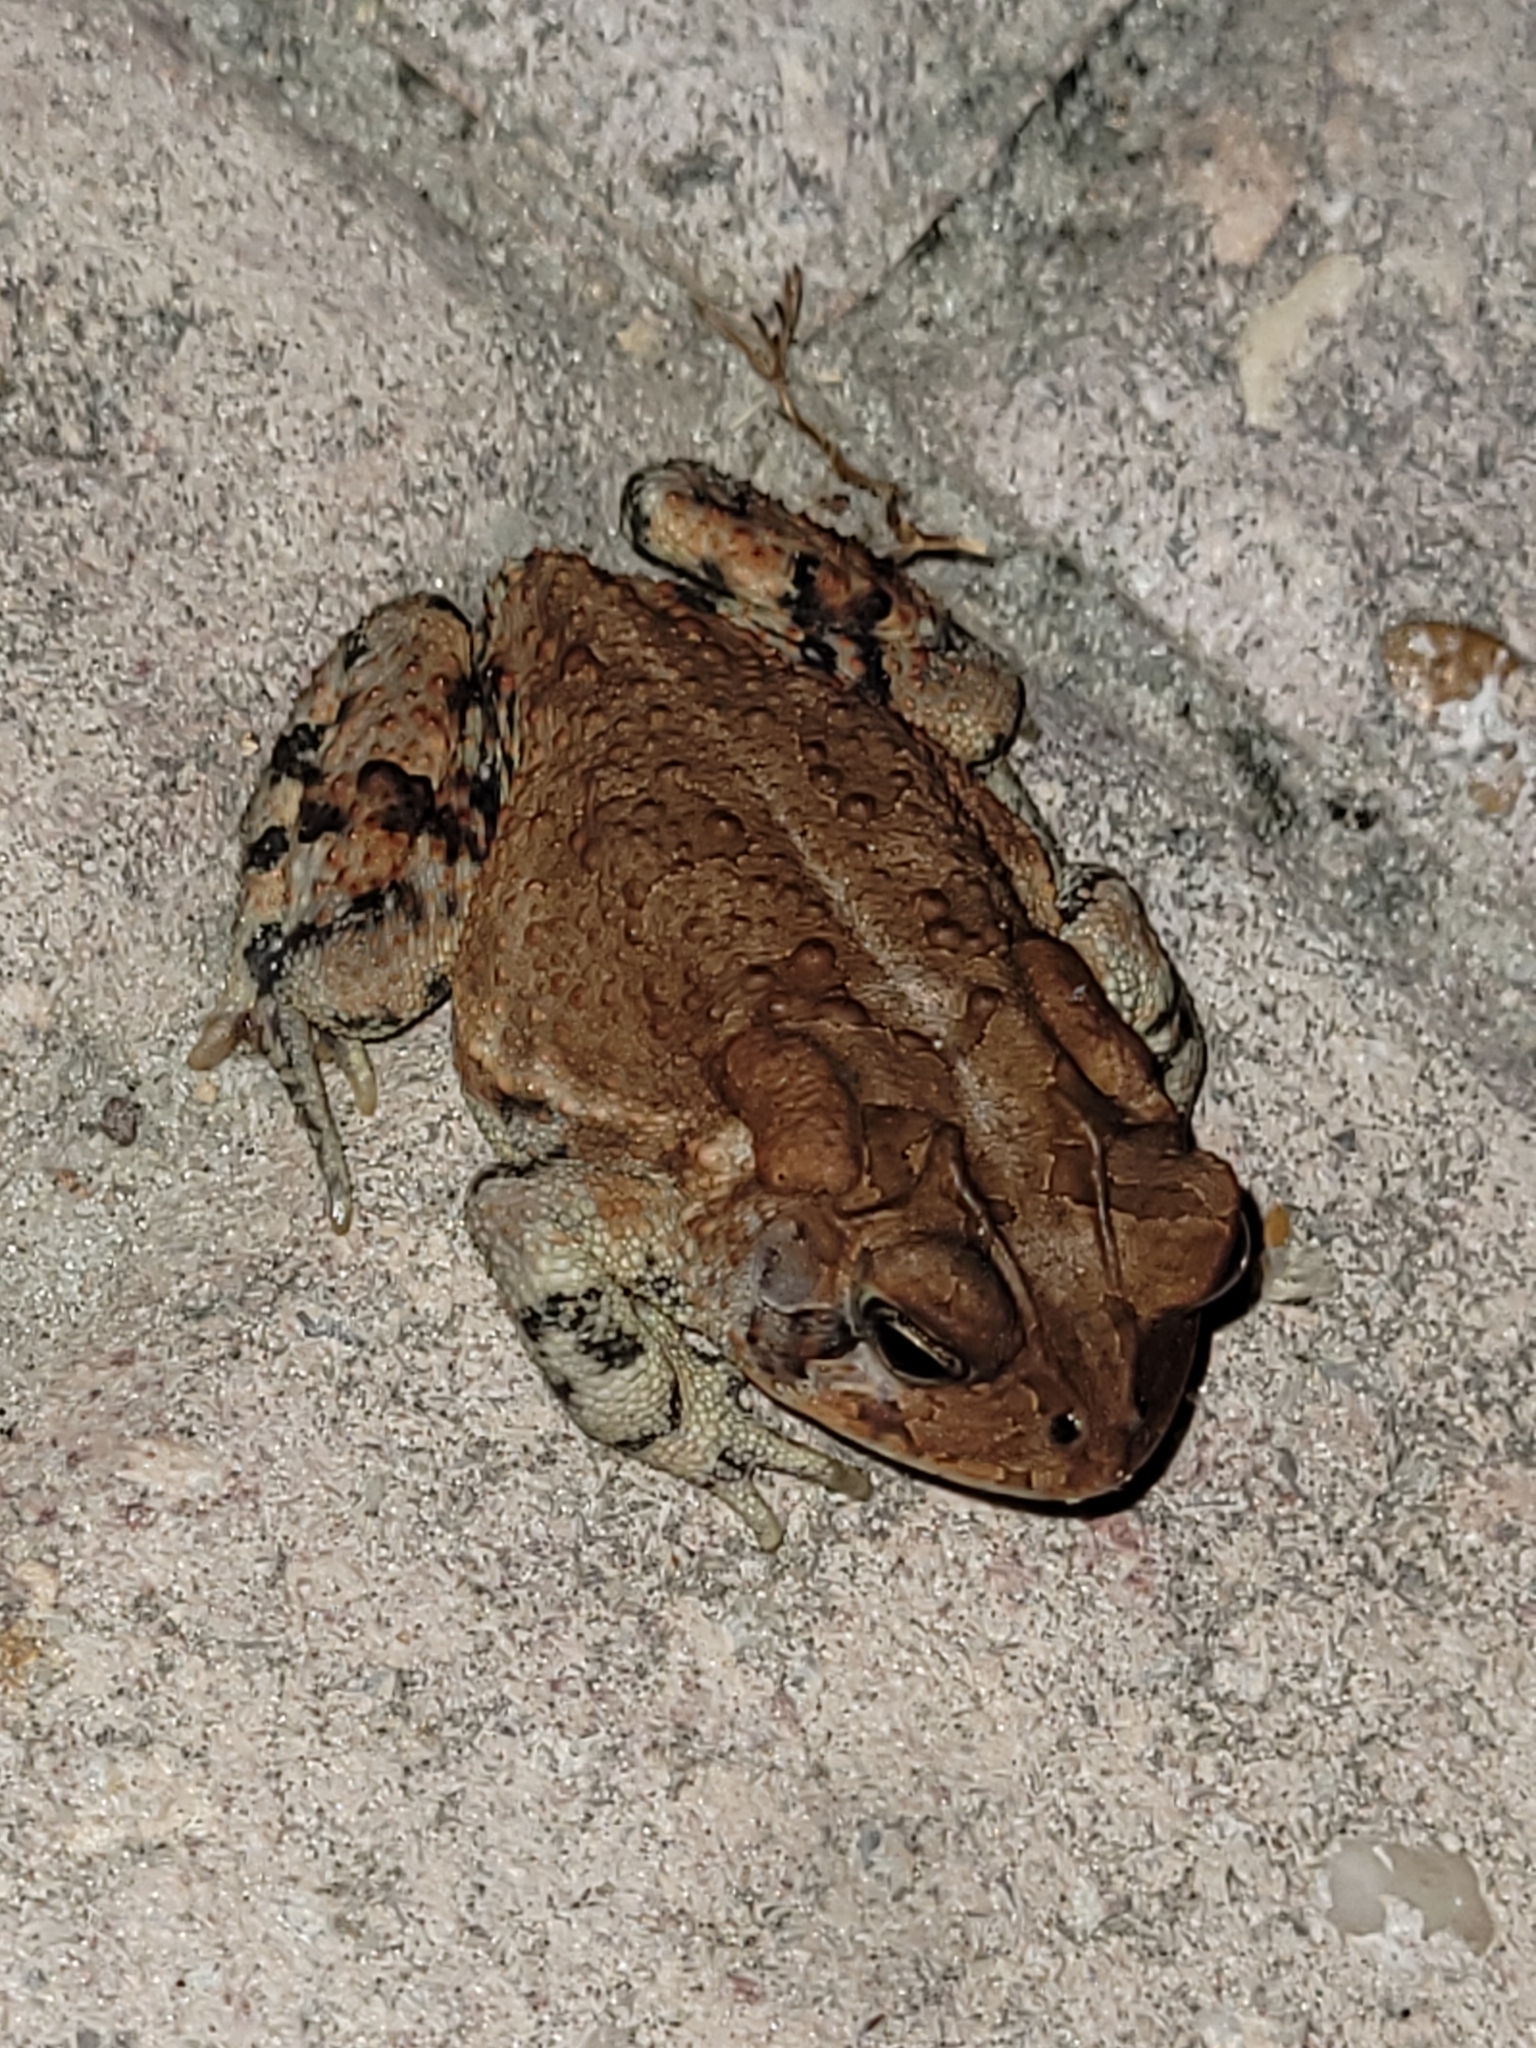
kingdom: Animalia
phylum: Chordata
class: Amphibia
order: Anura
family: Bufonidae
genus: Anaxyrus
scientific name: Anaxyrus terrestris
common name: Southern toad
